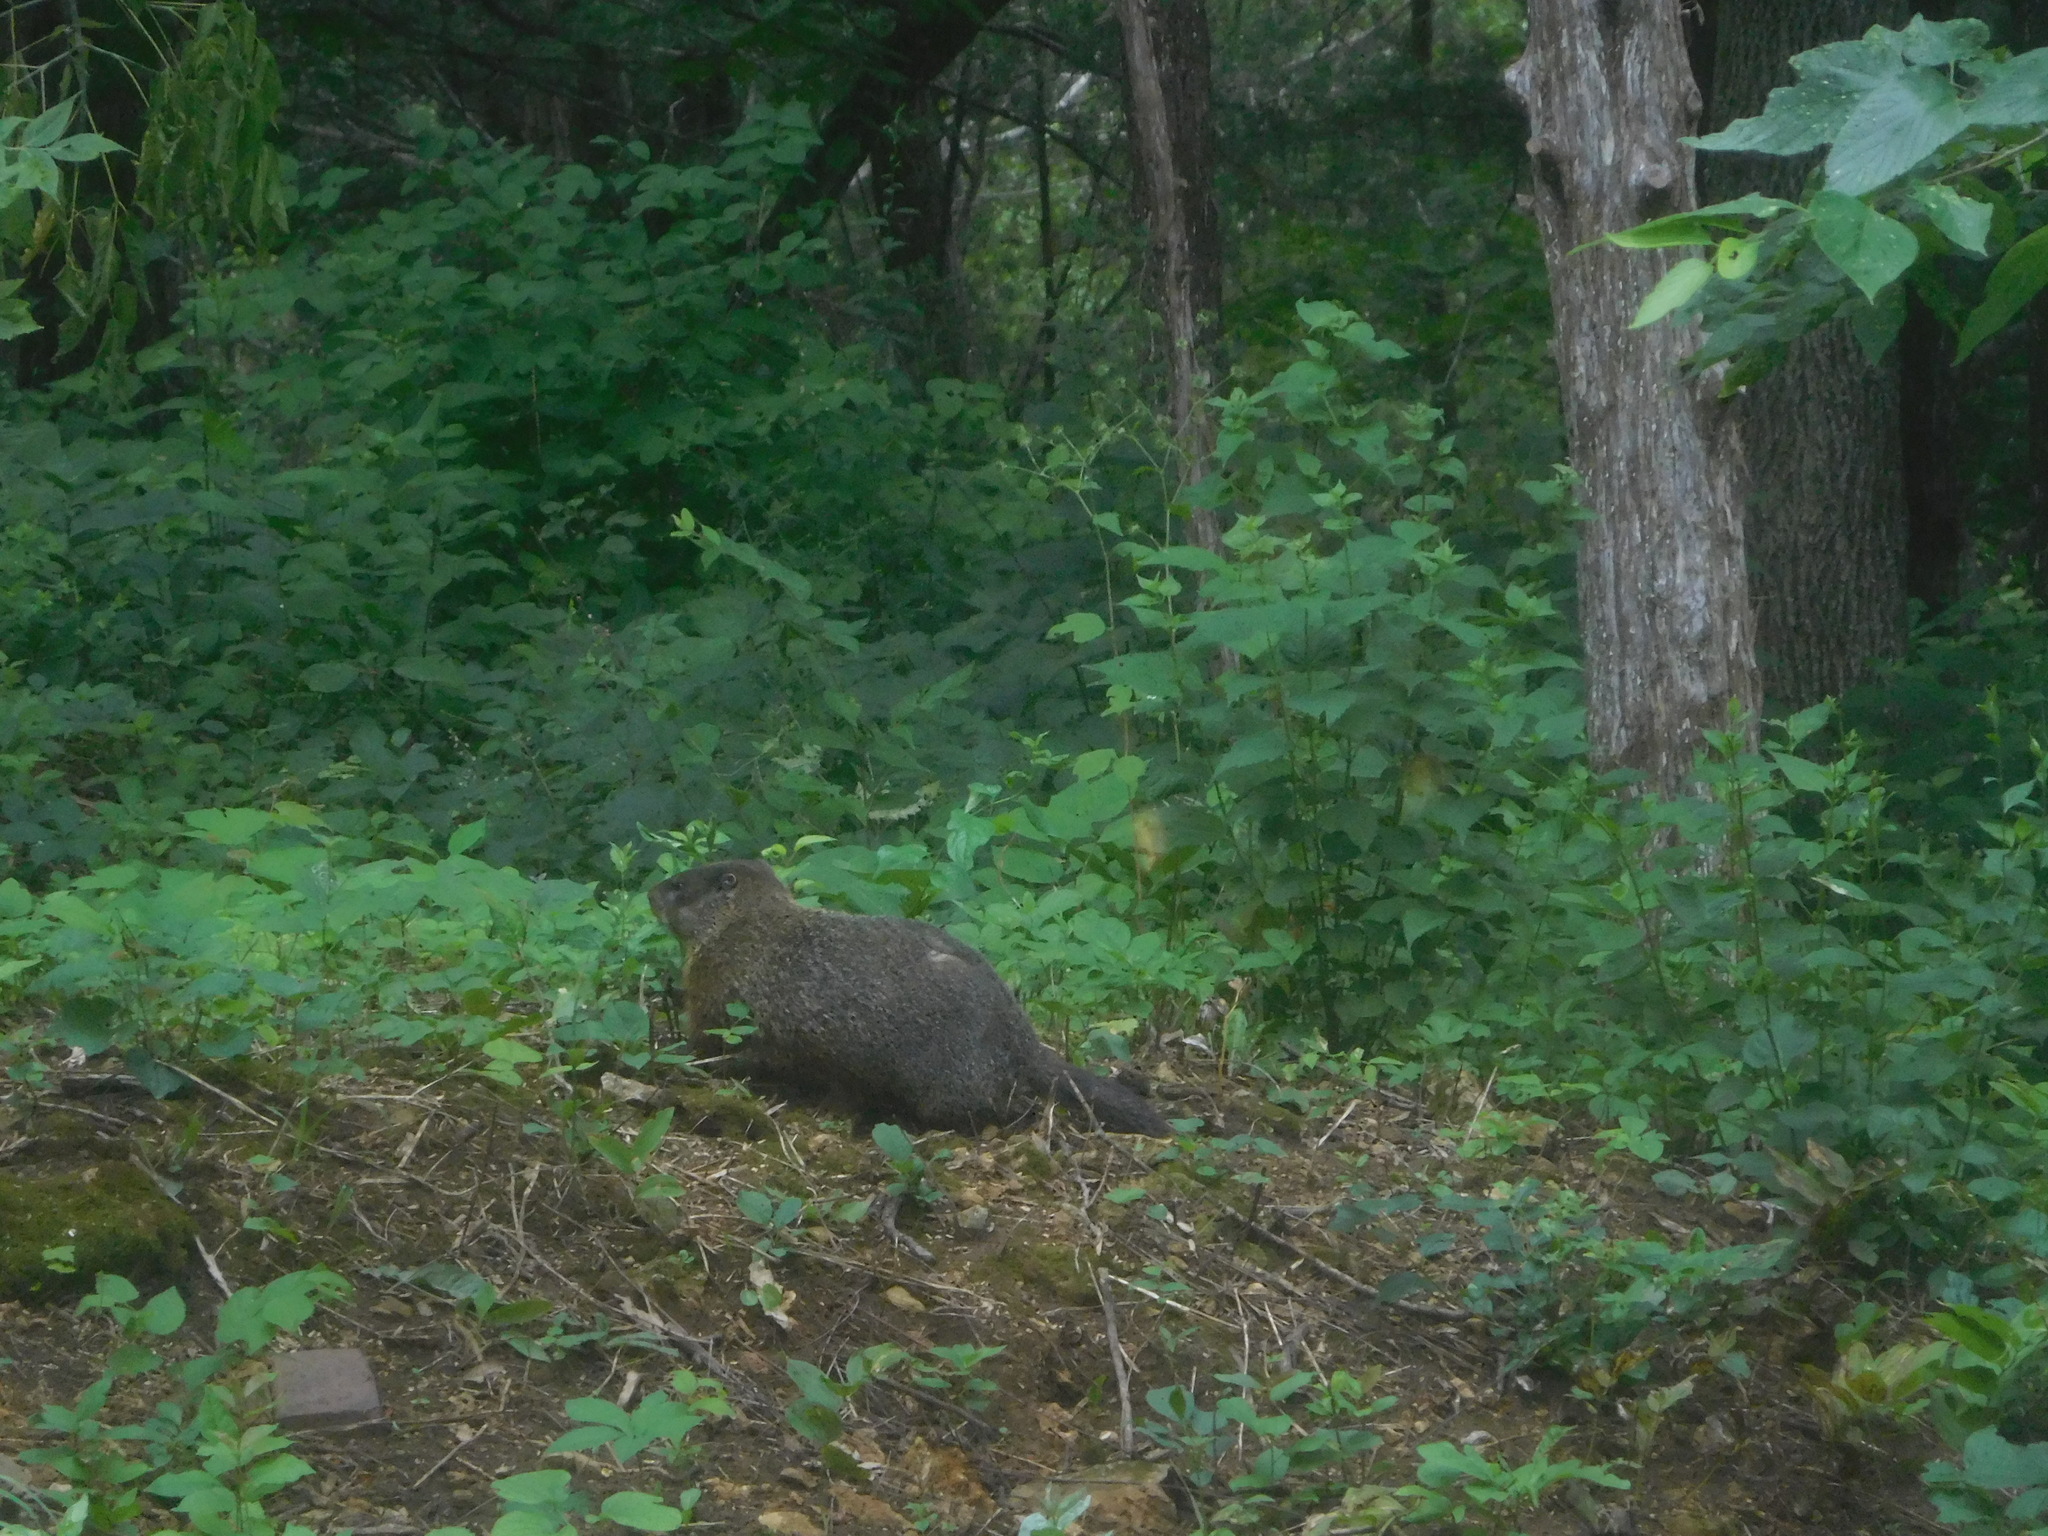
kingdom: Animalia
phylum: Chordata
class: Mammalia
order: Rodentia
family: Sciuridae
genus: Marmota
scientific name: Marmota monax
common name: Groundhog
